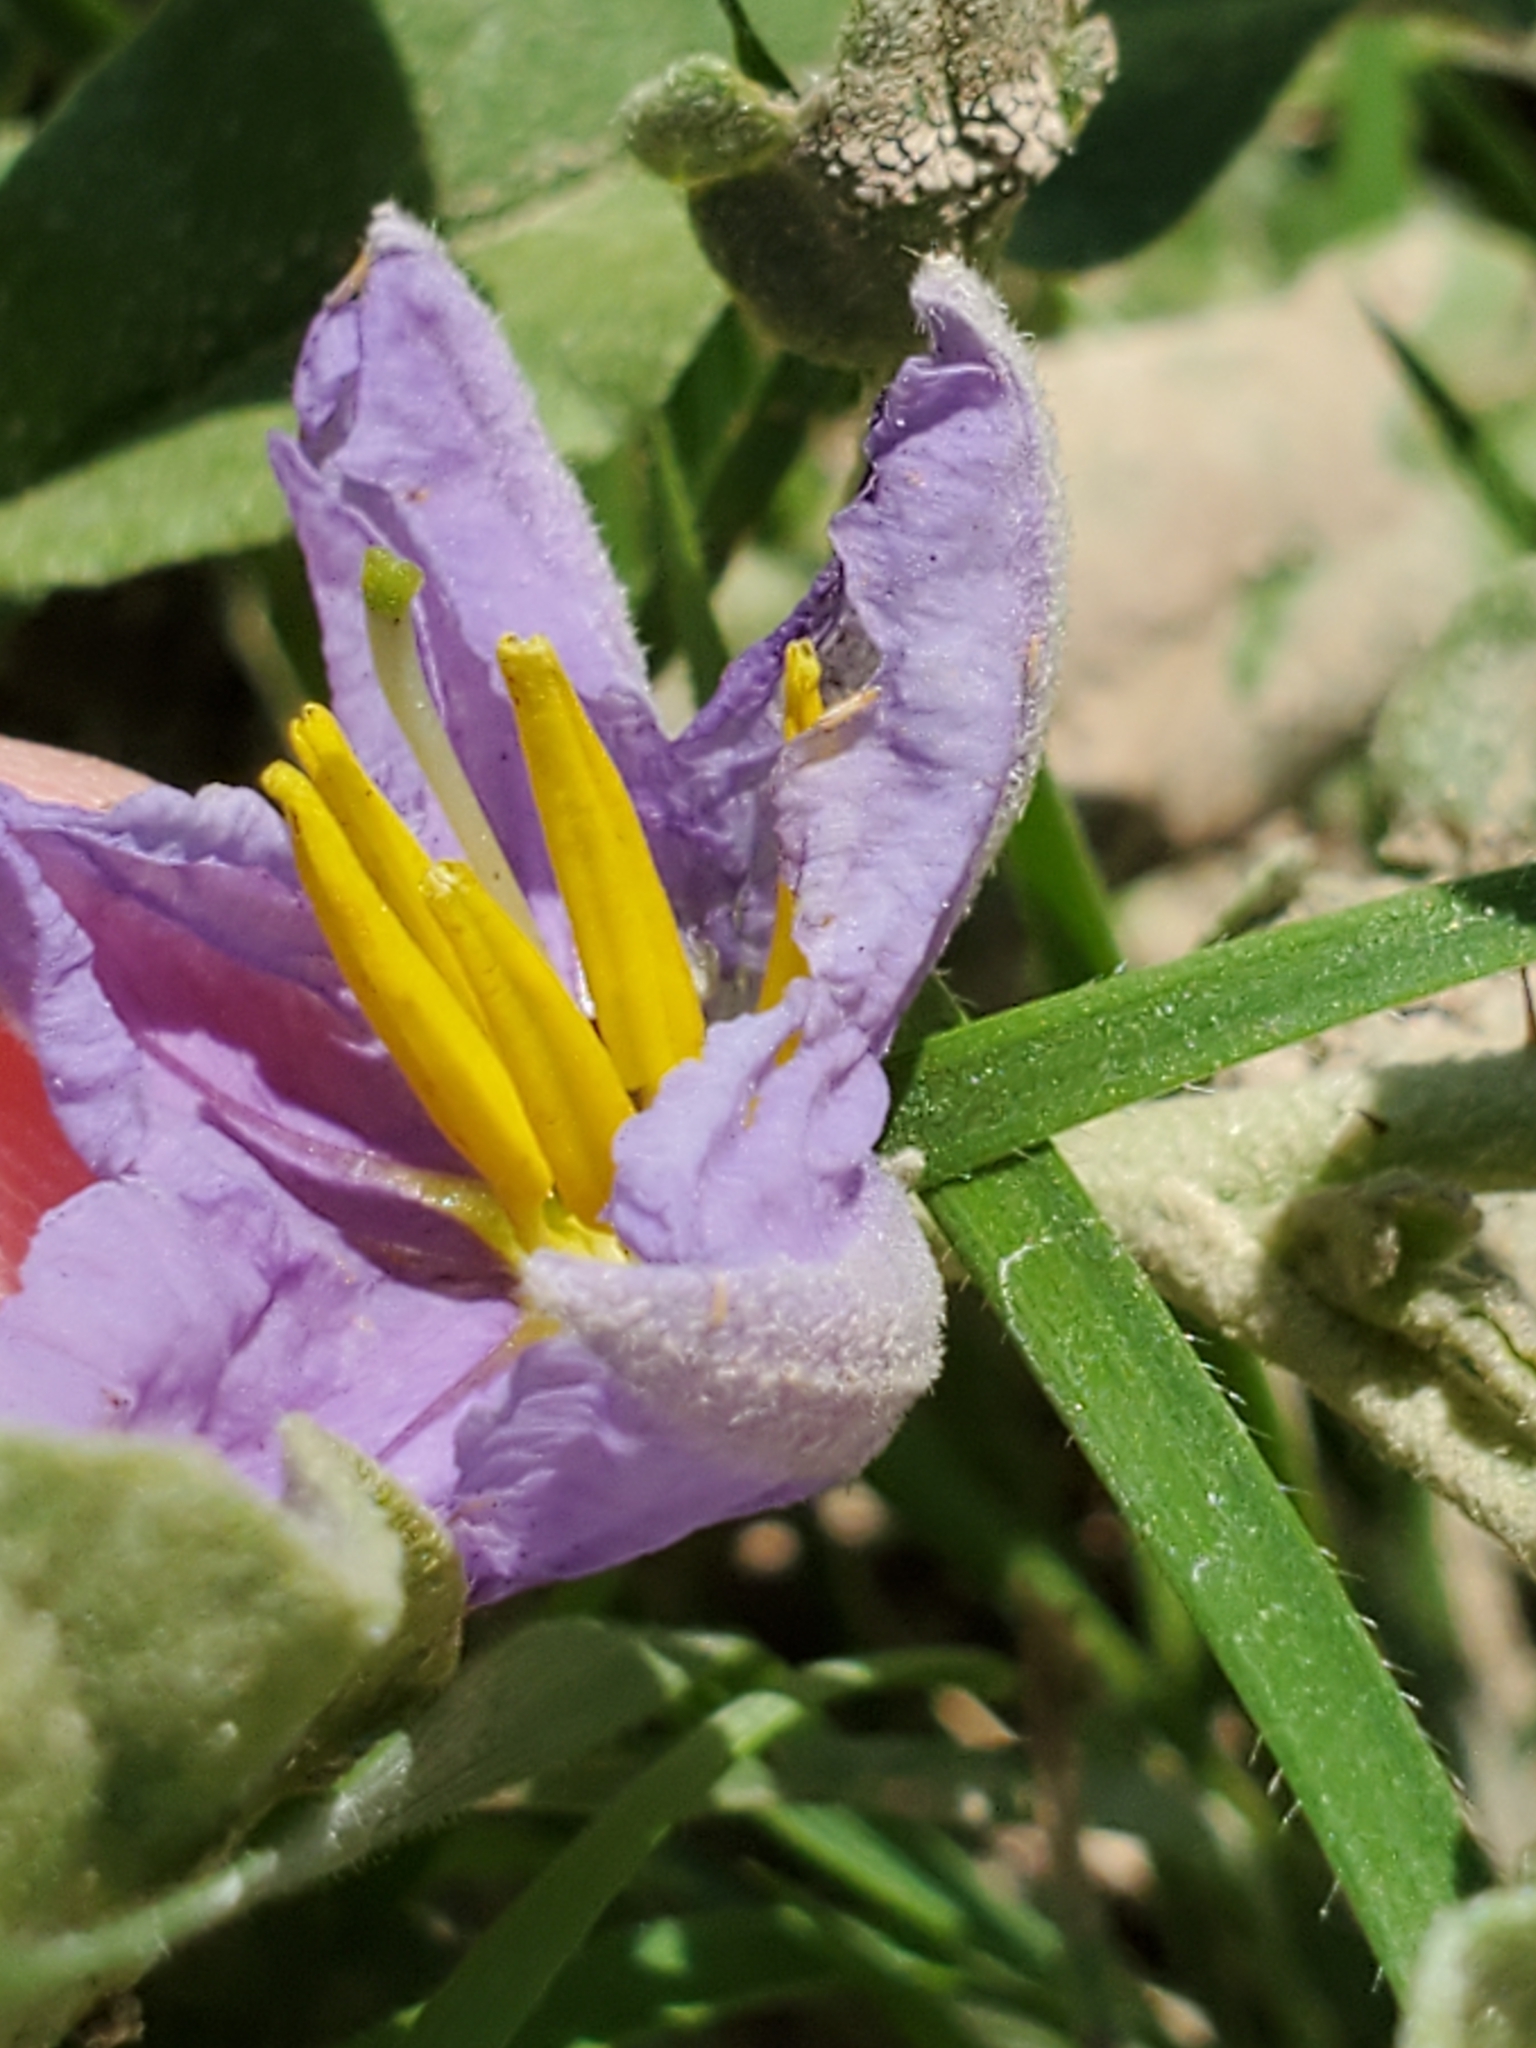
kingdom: Plantae
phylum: Tracheophyta
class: Magnoliopsida
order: Solanales
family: Solanaceae
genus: Solanum
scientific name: Solanum elaeagnifolium
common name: Silverleaf nightshade
